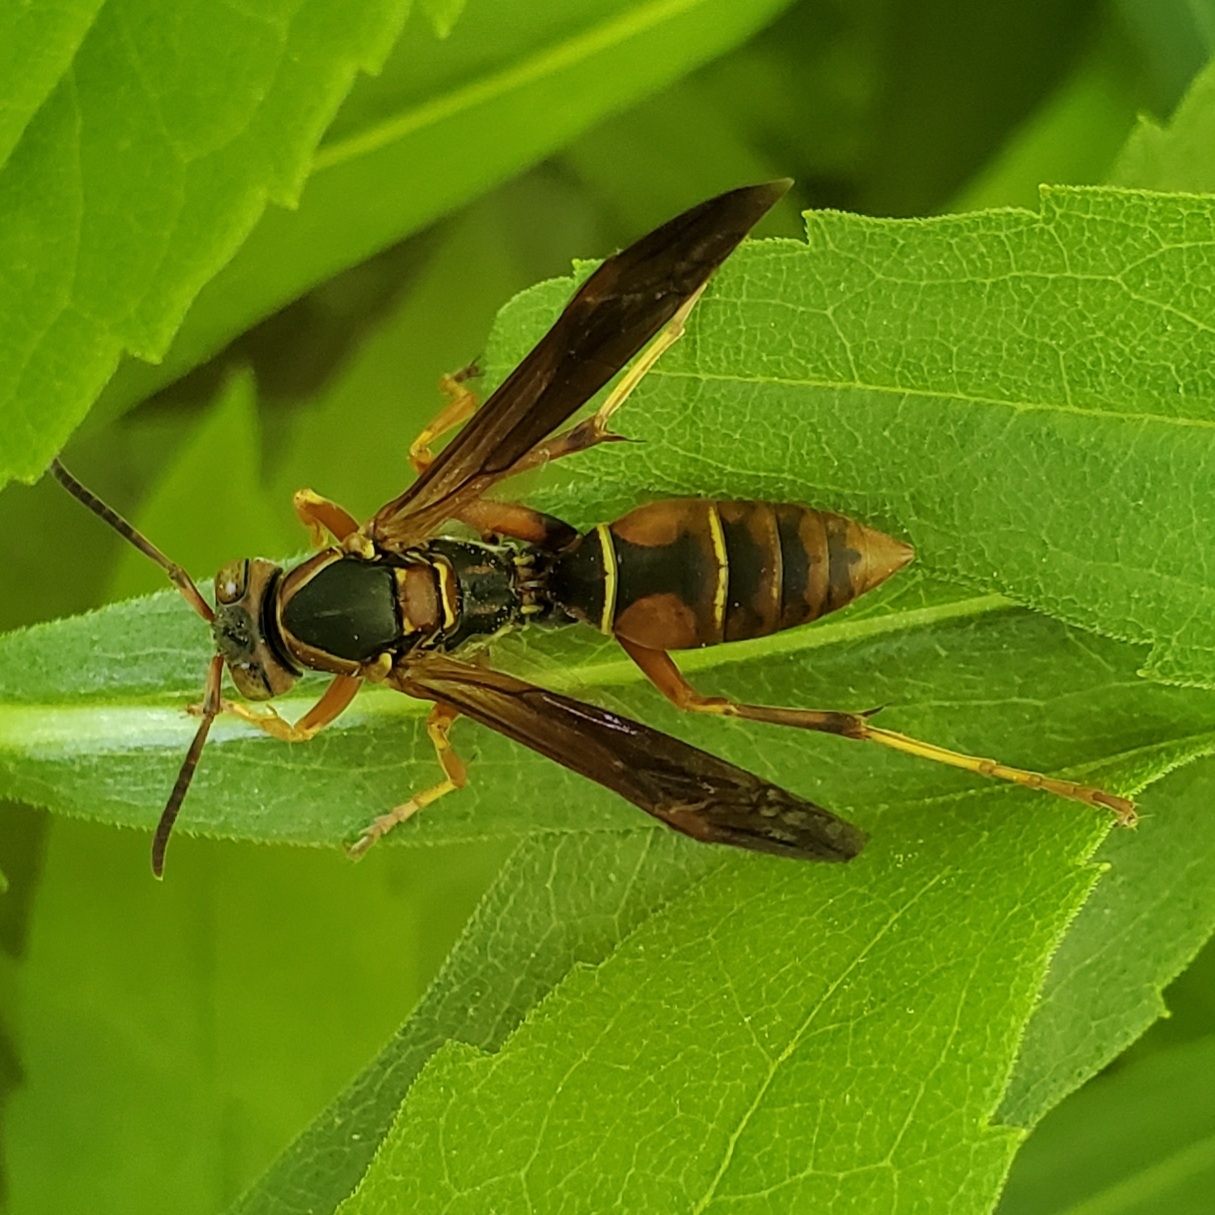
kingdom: Animalia
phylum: Arthropoda
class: Insecta
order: Hymenoptera
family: Eumenidae
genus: Polistes
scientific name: Polistes fuscatus
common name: Dark paper wasp
